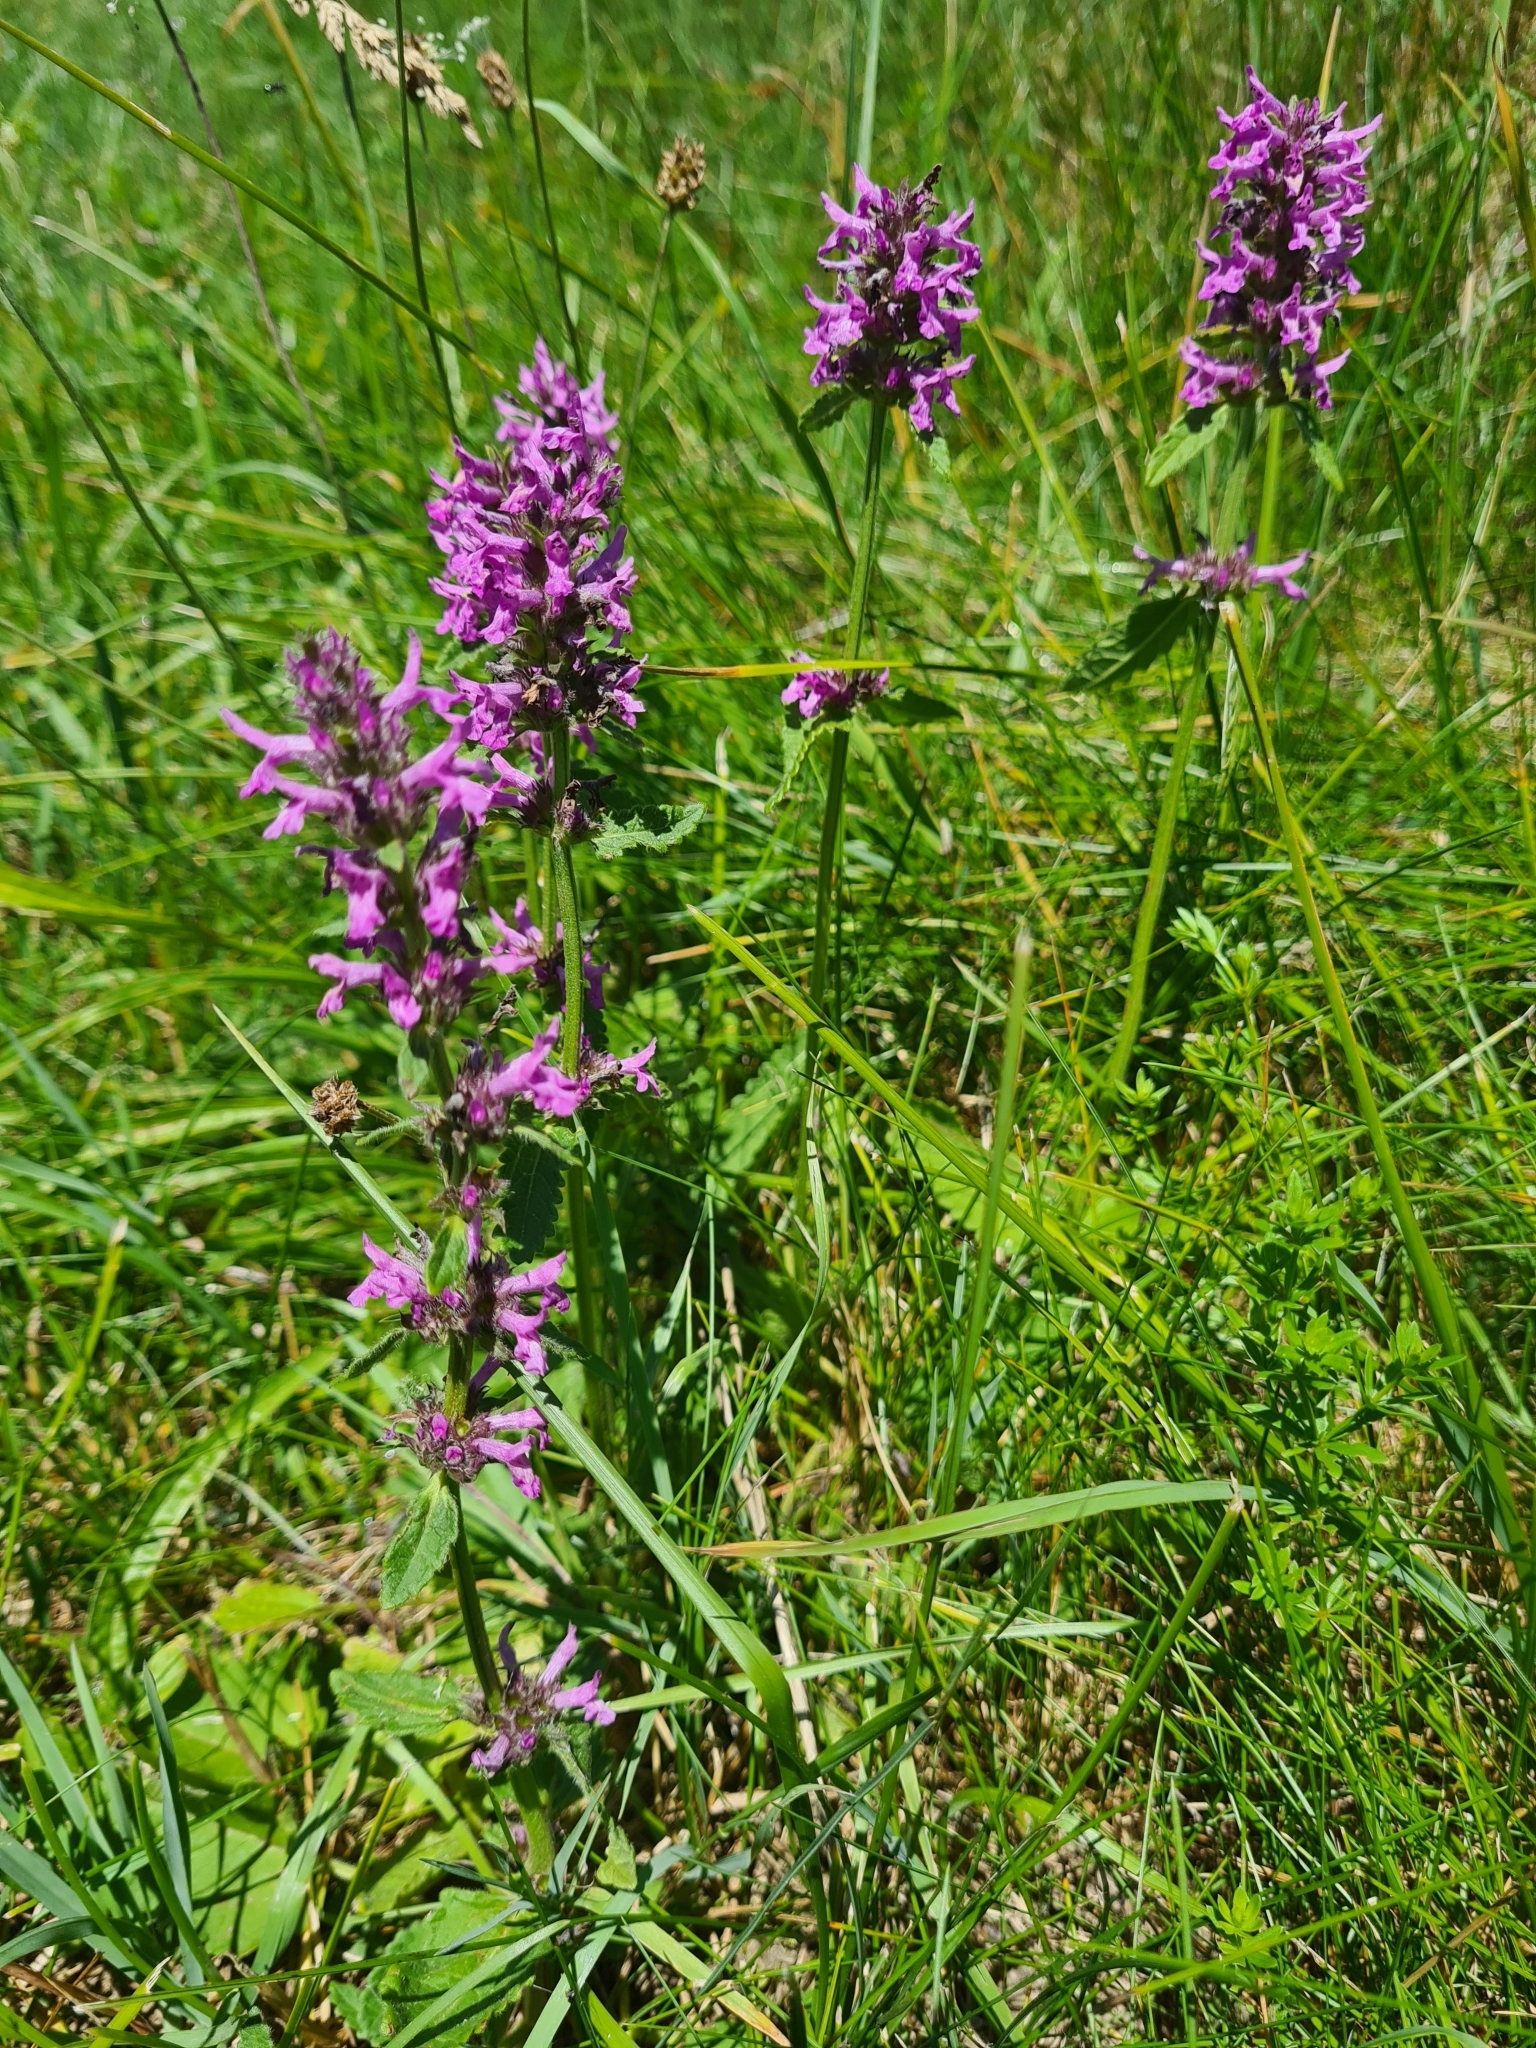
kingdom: Plantae
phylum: Tracheophyta
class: Magnoliopsida
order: Lamiales
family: Lamiaceae
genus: Betonica
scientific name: Betonica officinalis
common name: Bishop's-wort
